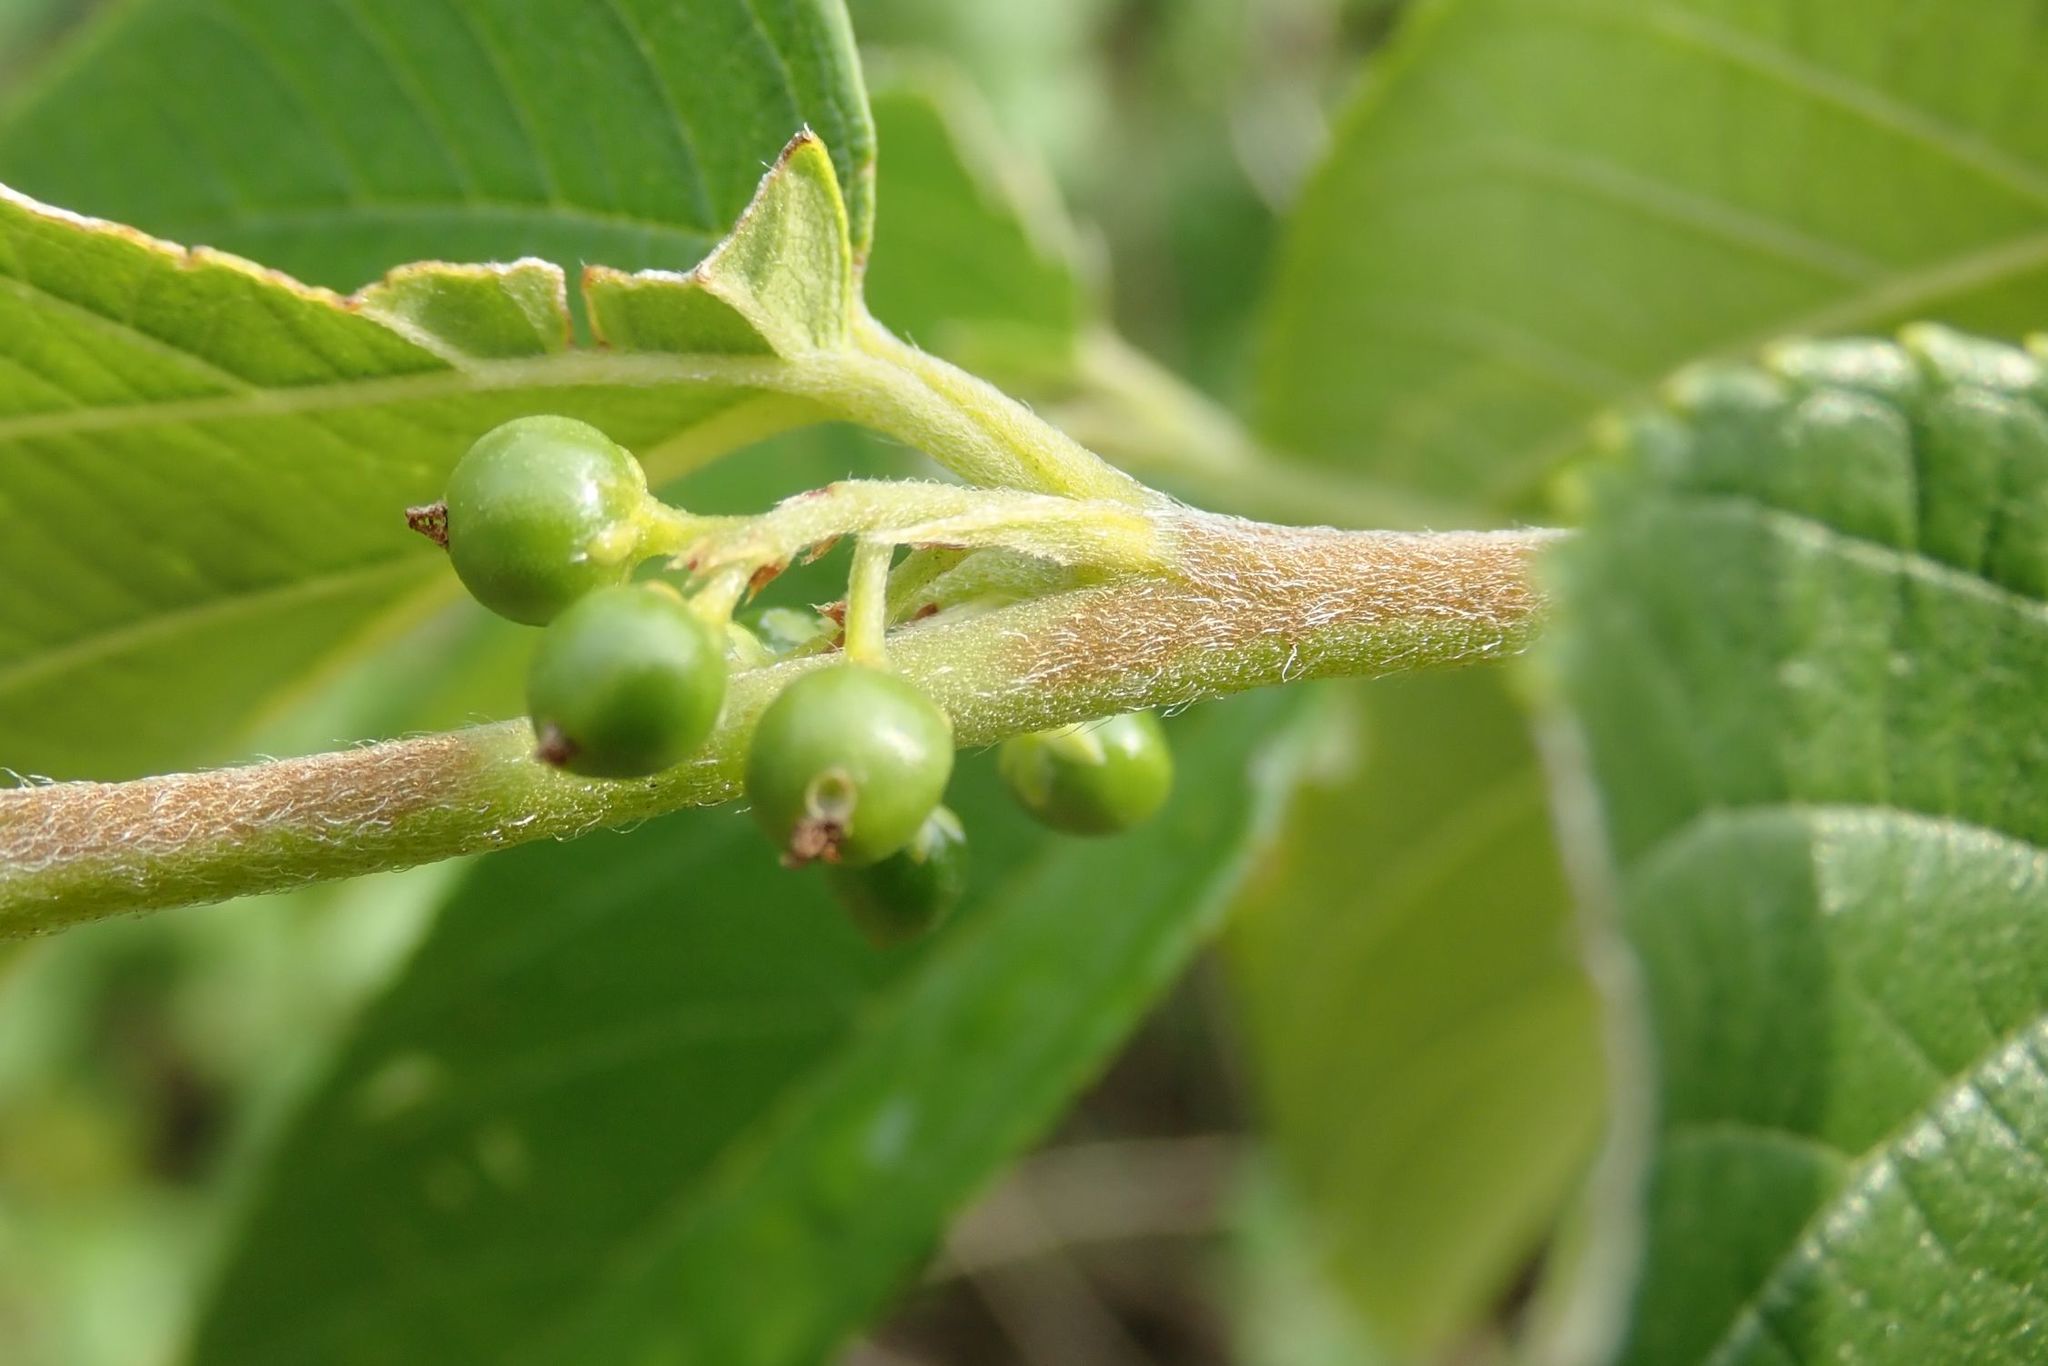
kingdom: Plantae
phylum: Tracheophyta
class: Magnoliopsida
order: Rosales
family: Cannabaceae
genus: Trema
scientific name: Trema orientale
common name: Indian charcoal tree
